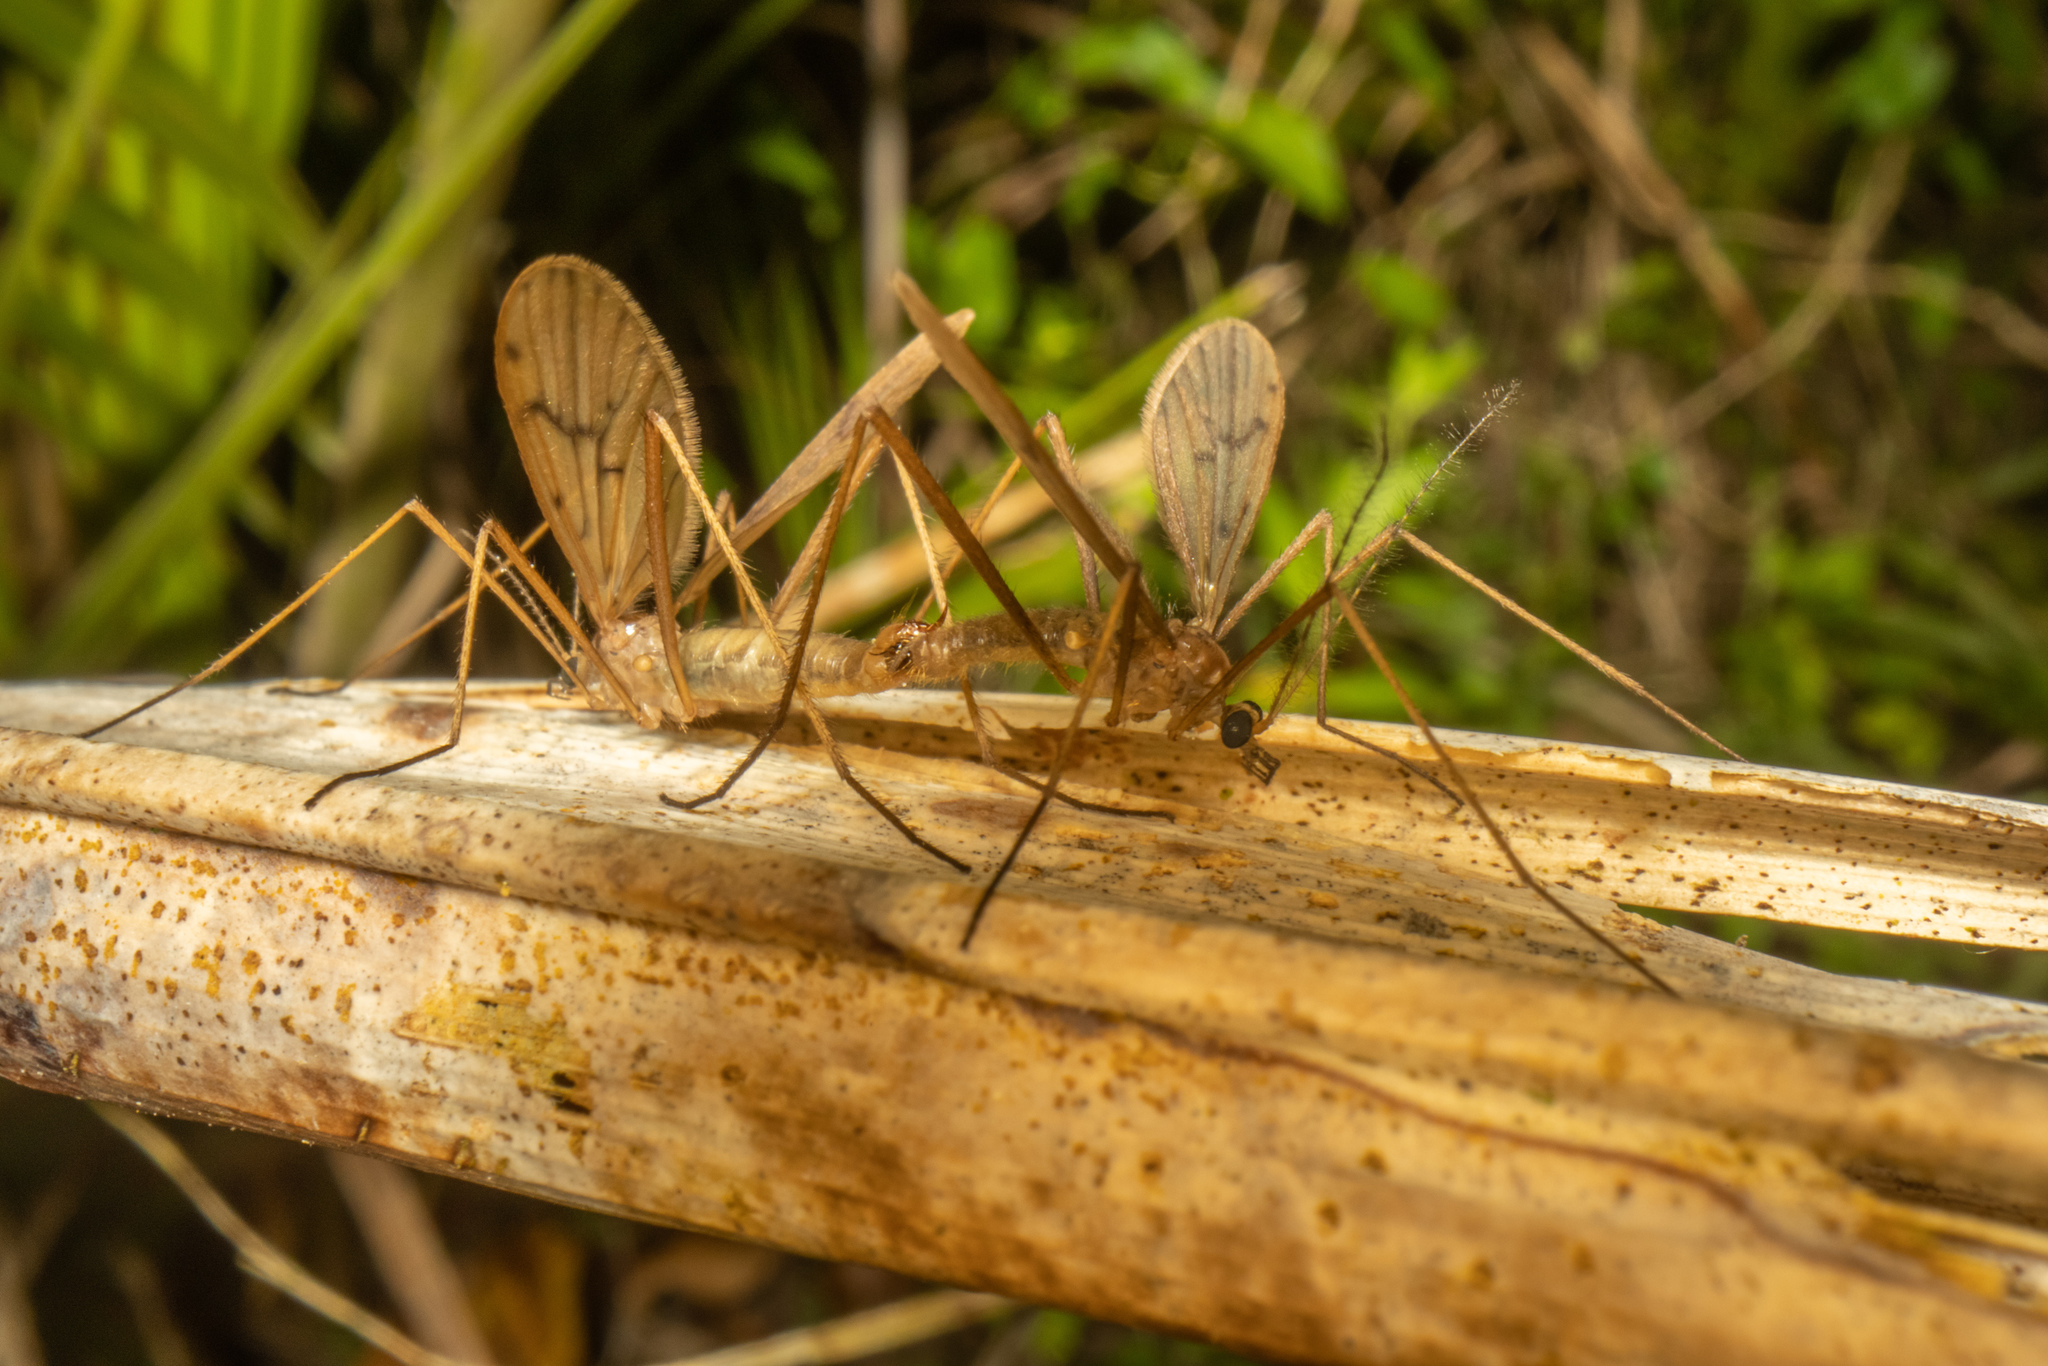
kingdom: Animalia
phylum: Arthropoda
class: Insecta
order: Diptera
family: Limoniidae
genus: Amphineurus
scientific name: Amphineurus insulsus
